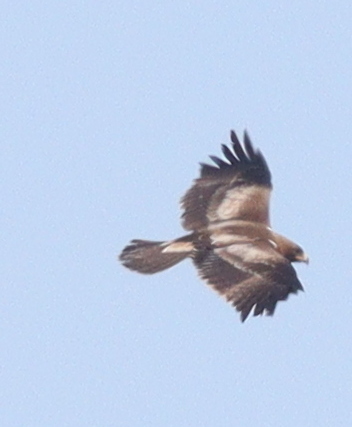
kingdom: Animalia
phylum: Chordata
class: Aves
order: Accipitriformes
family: Accipitridae
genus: Hieraaetus
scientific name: Hieraaetus pennatus
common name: Booted eagle
